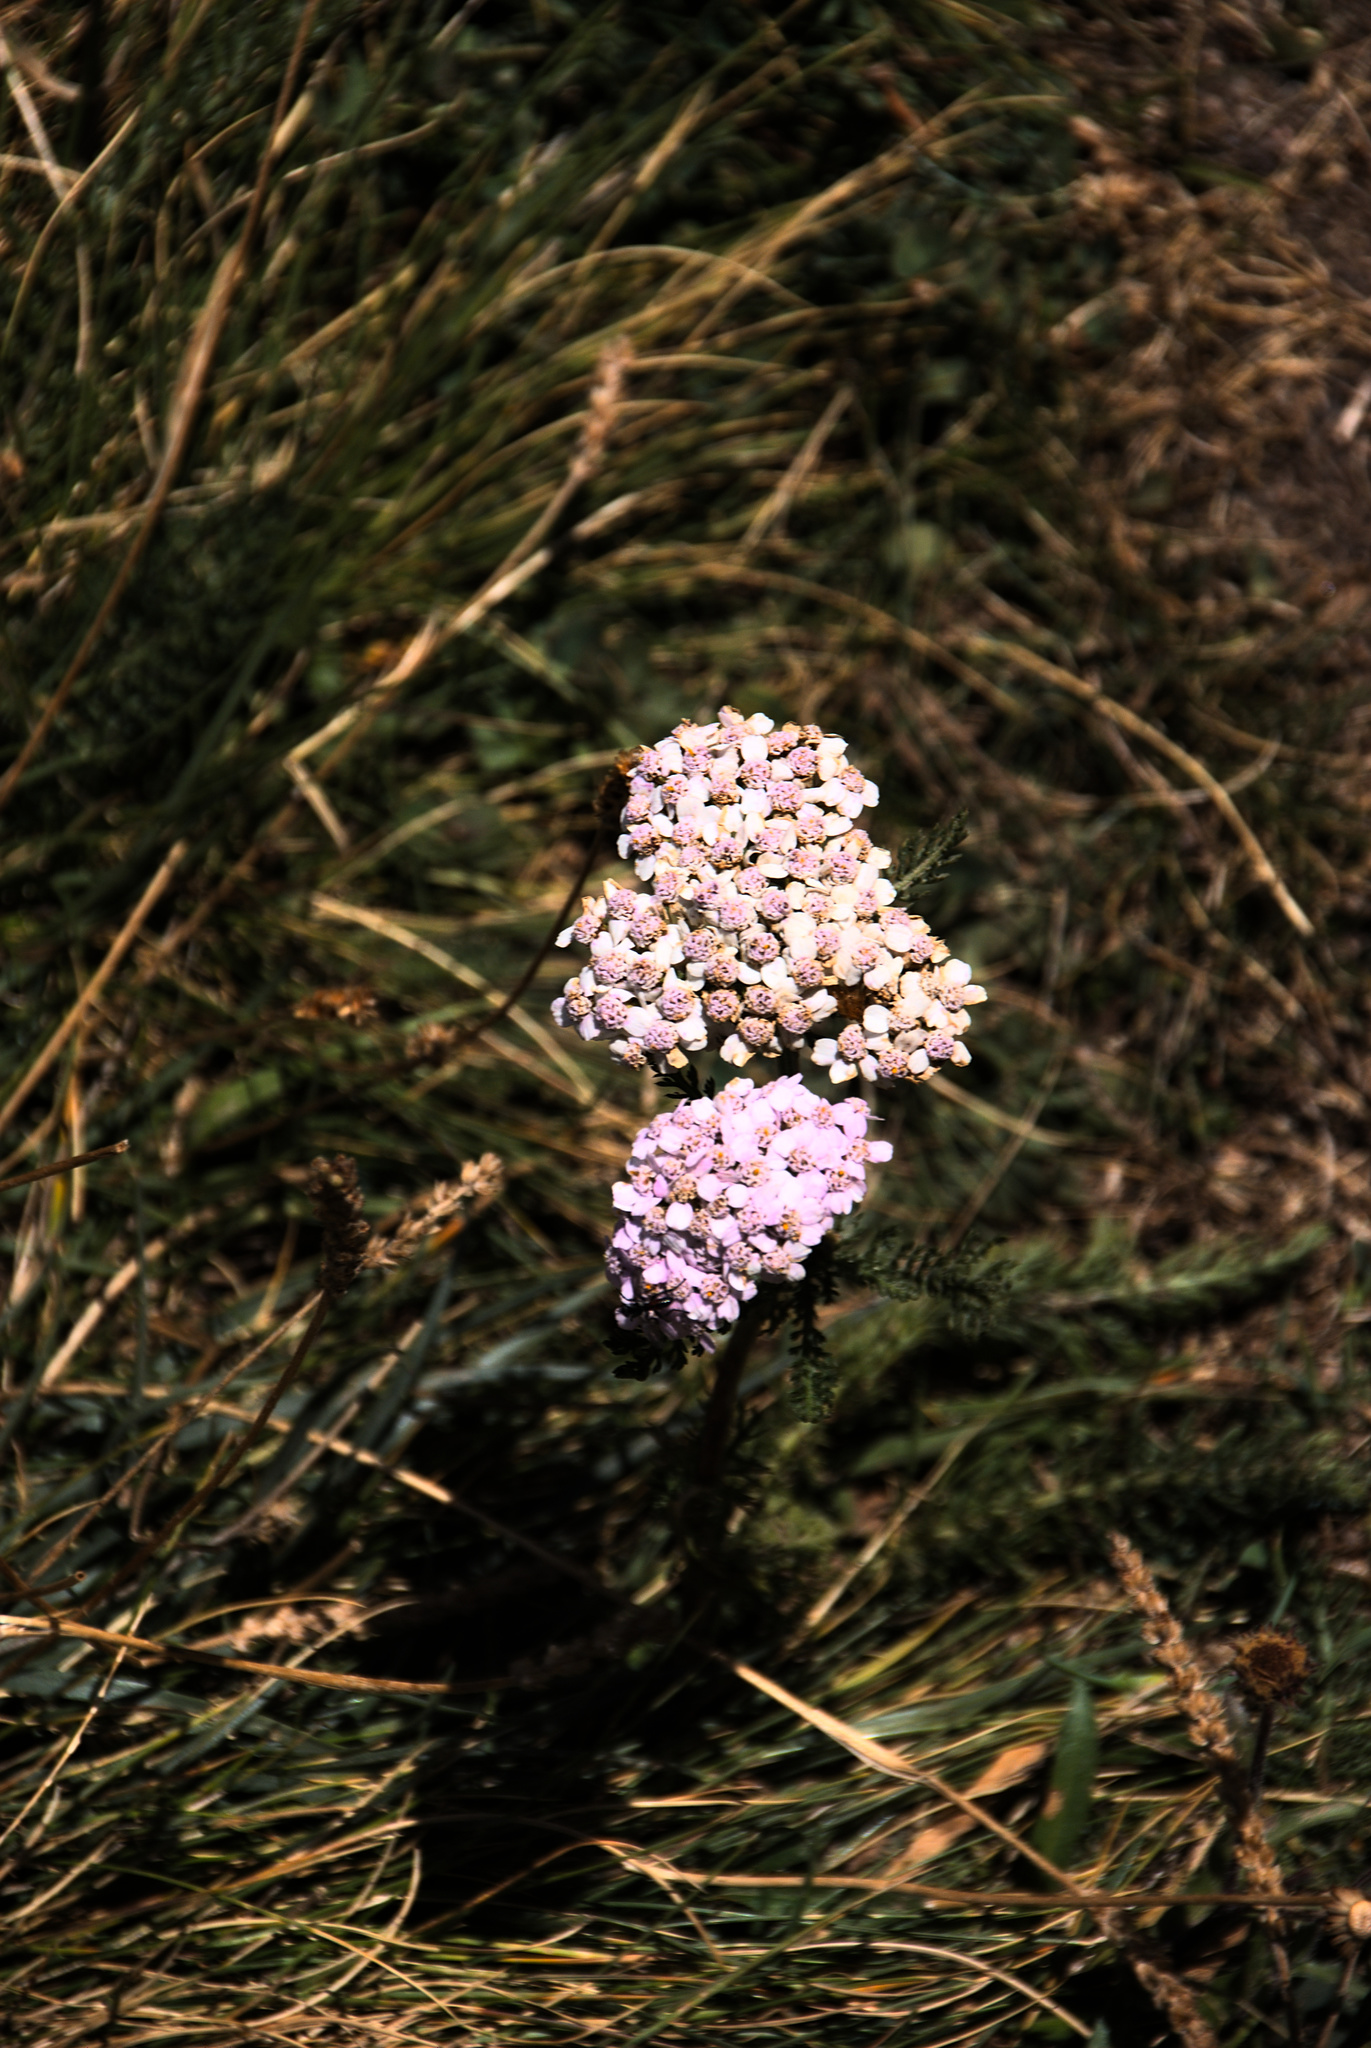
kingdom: Plantae
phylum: Tracheophyta
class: Magnoliopsida
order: Asterales
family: Asteraceae
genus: Achillea
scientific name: Achillea millefolium
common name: Yarrow
